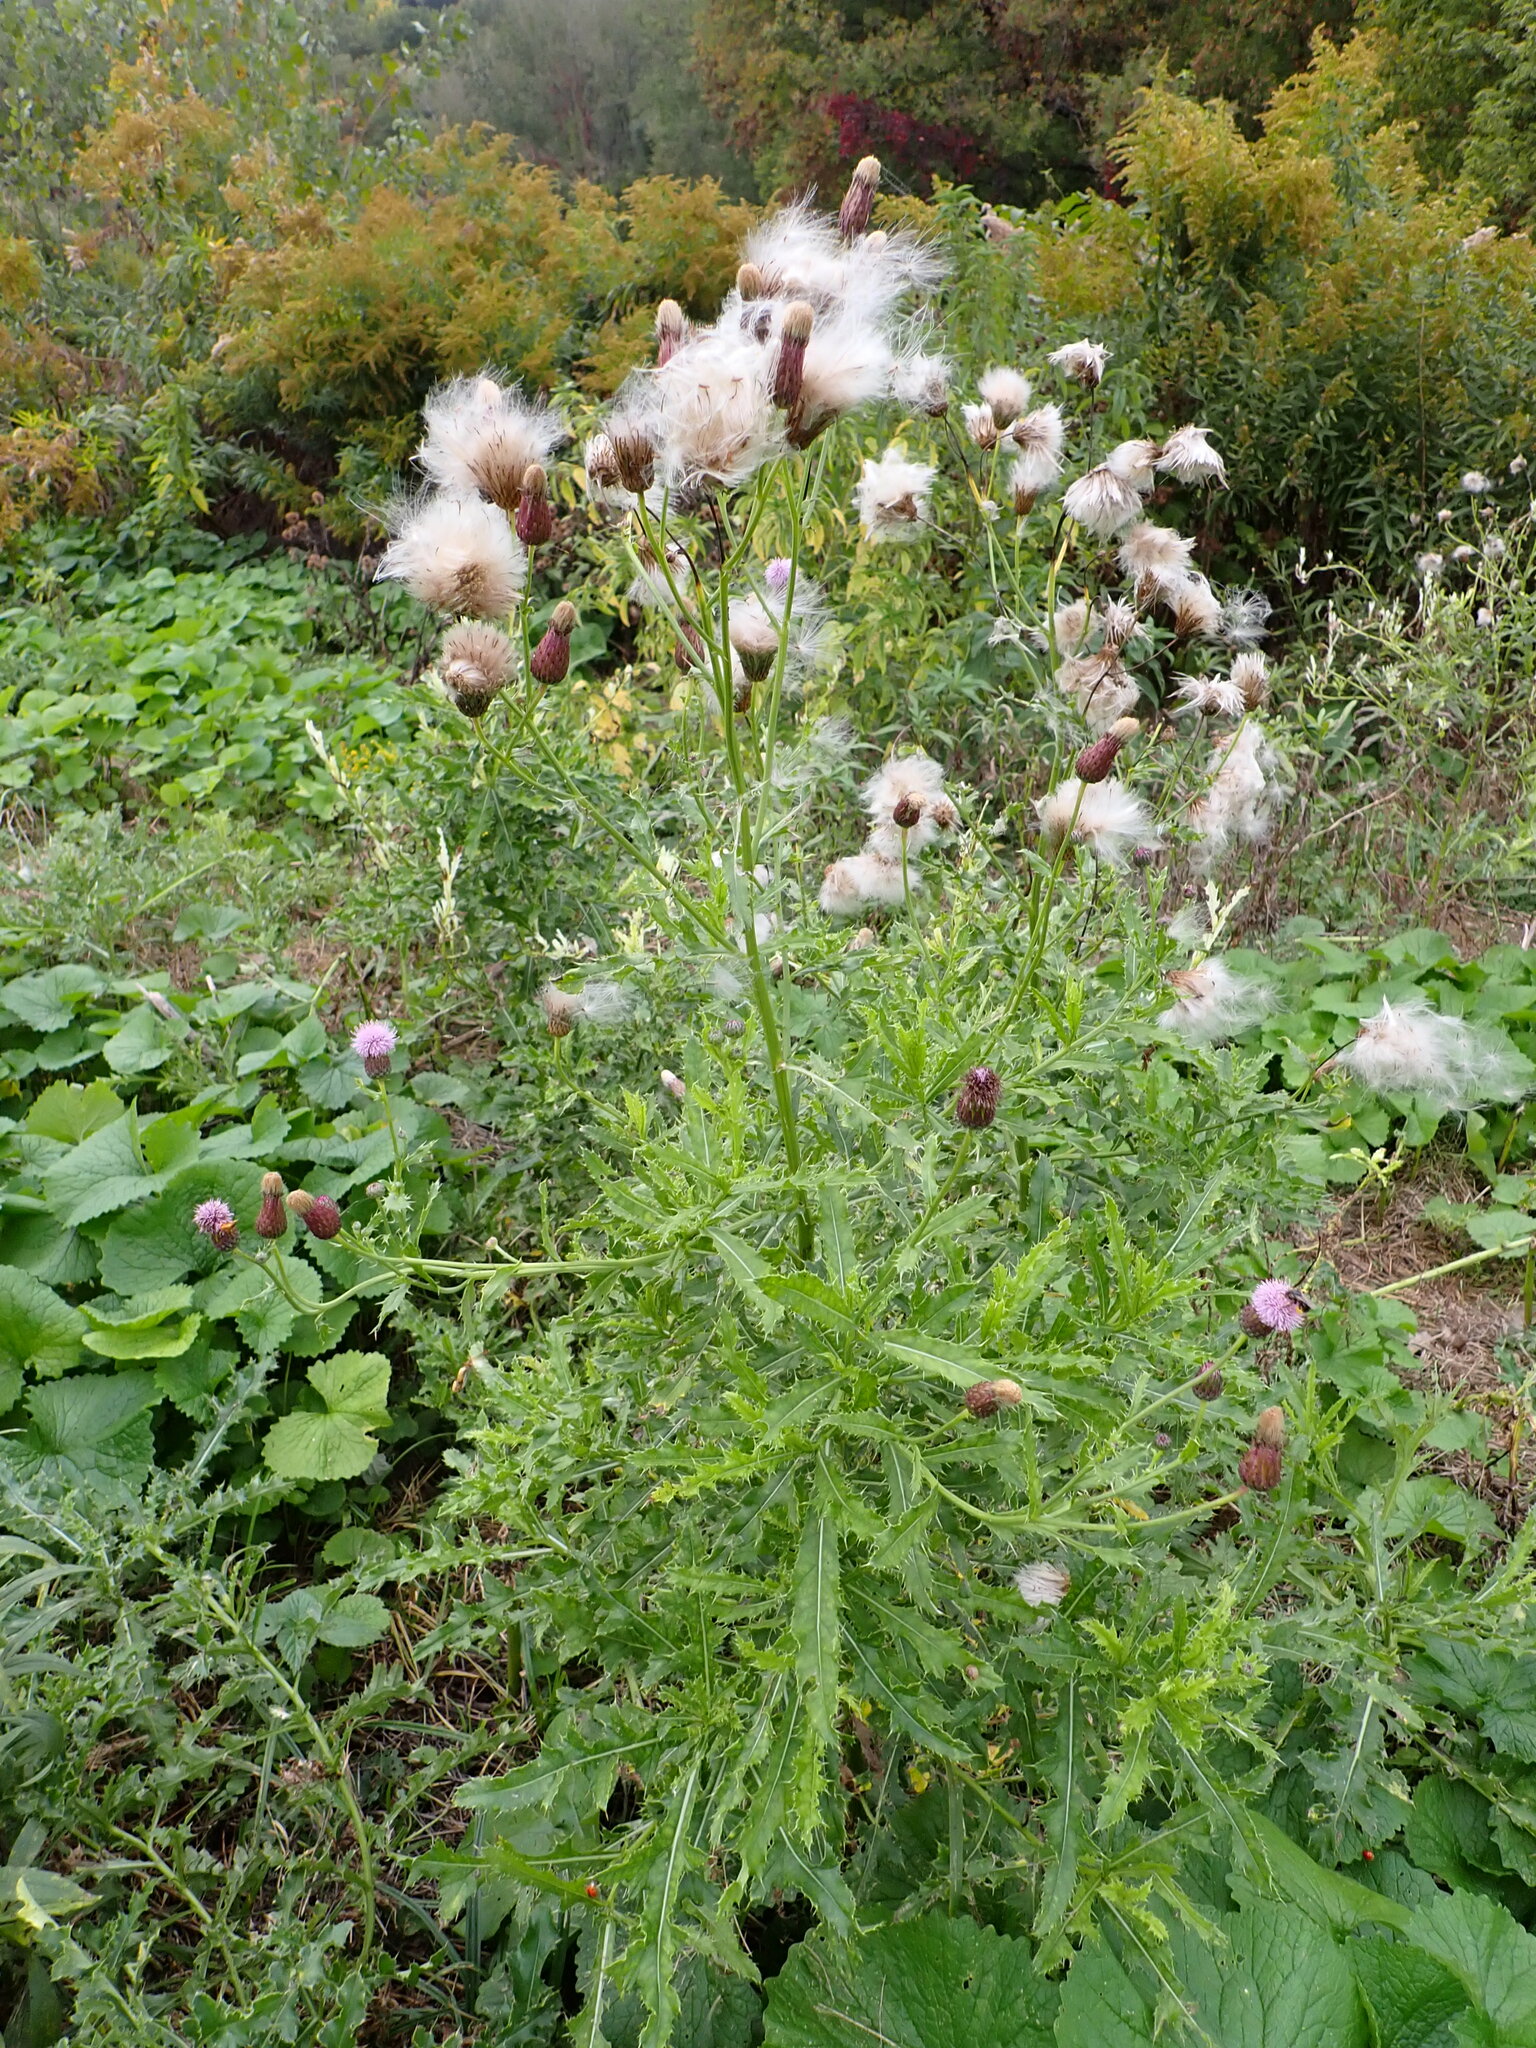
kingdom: Plantae
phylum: Tracheophyta
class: Magnoliopsida
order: Asterales
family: Asteraceae
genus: Cirsium
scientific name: Cirsium arvense
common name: Creeping thistle
